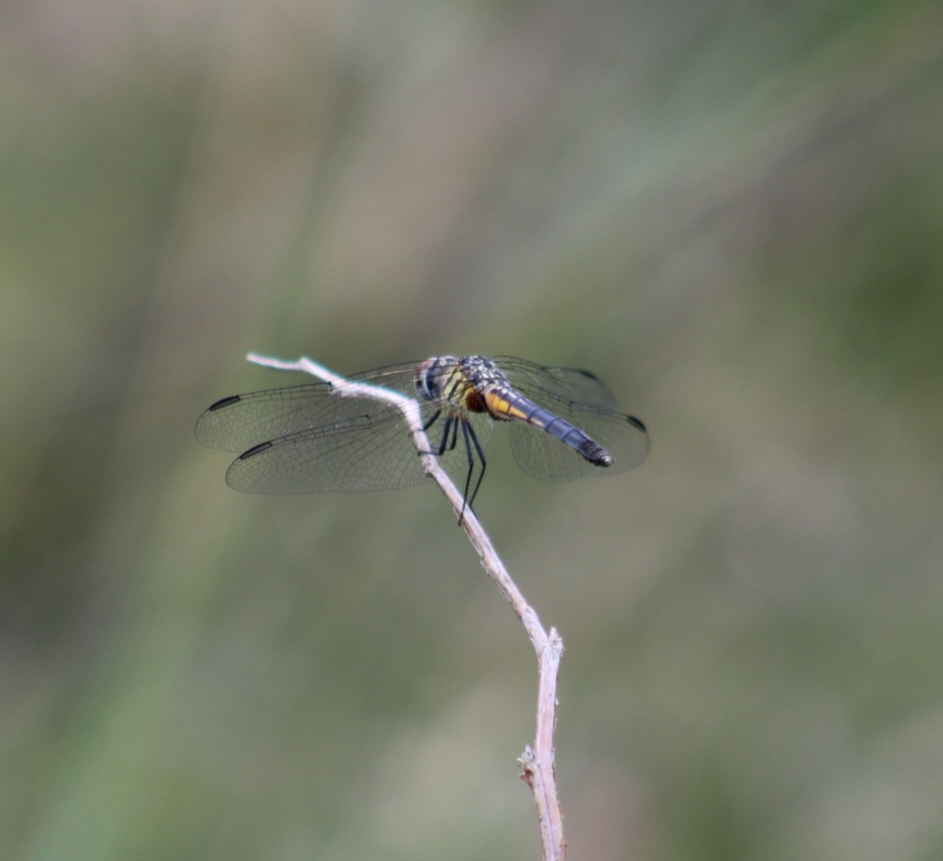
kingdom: Animalia
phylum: Arthropoda
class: Insecta
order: Odonata
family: Libellulidae
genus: Pachydiplax
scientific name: Pachydiplax longipennis
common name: Blue dasher
